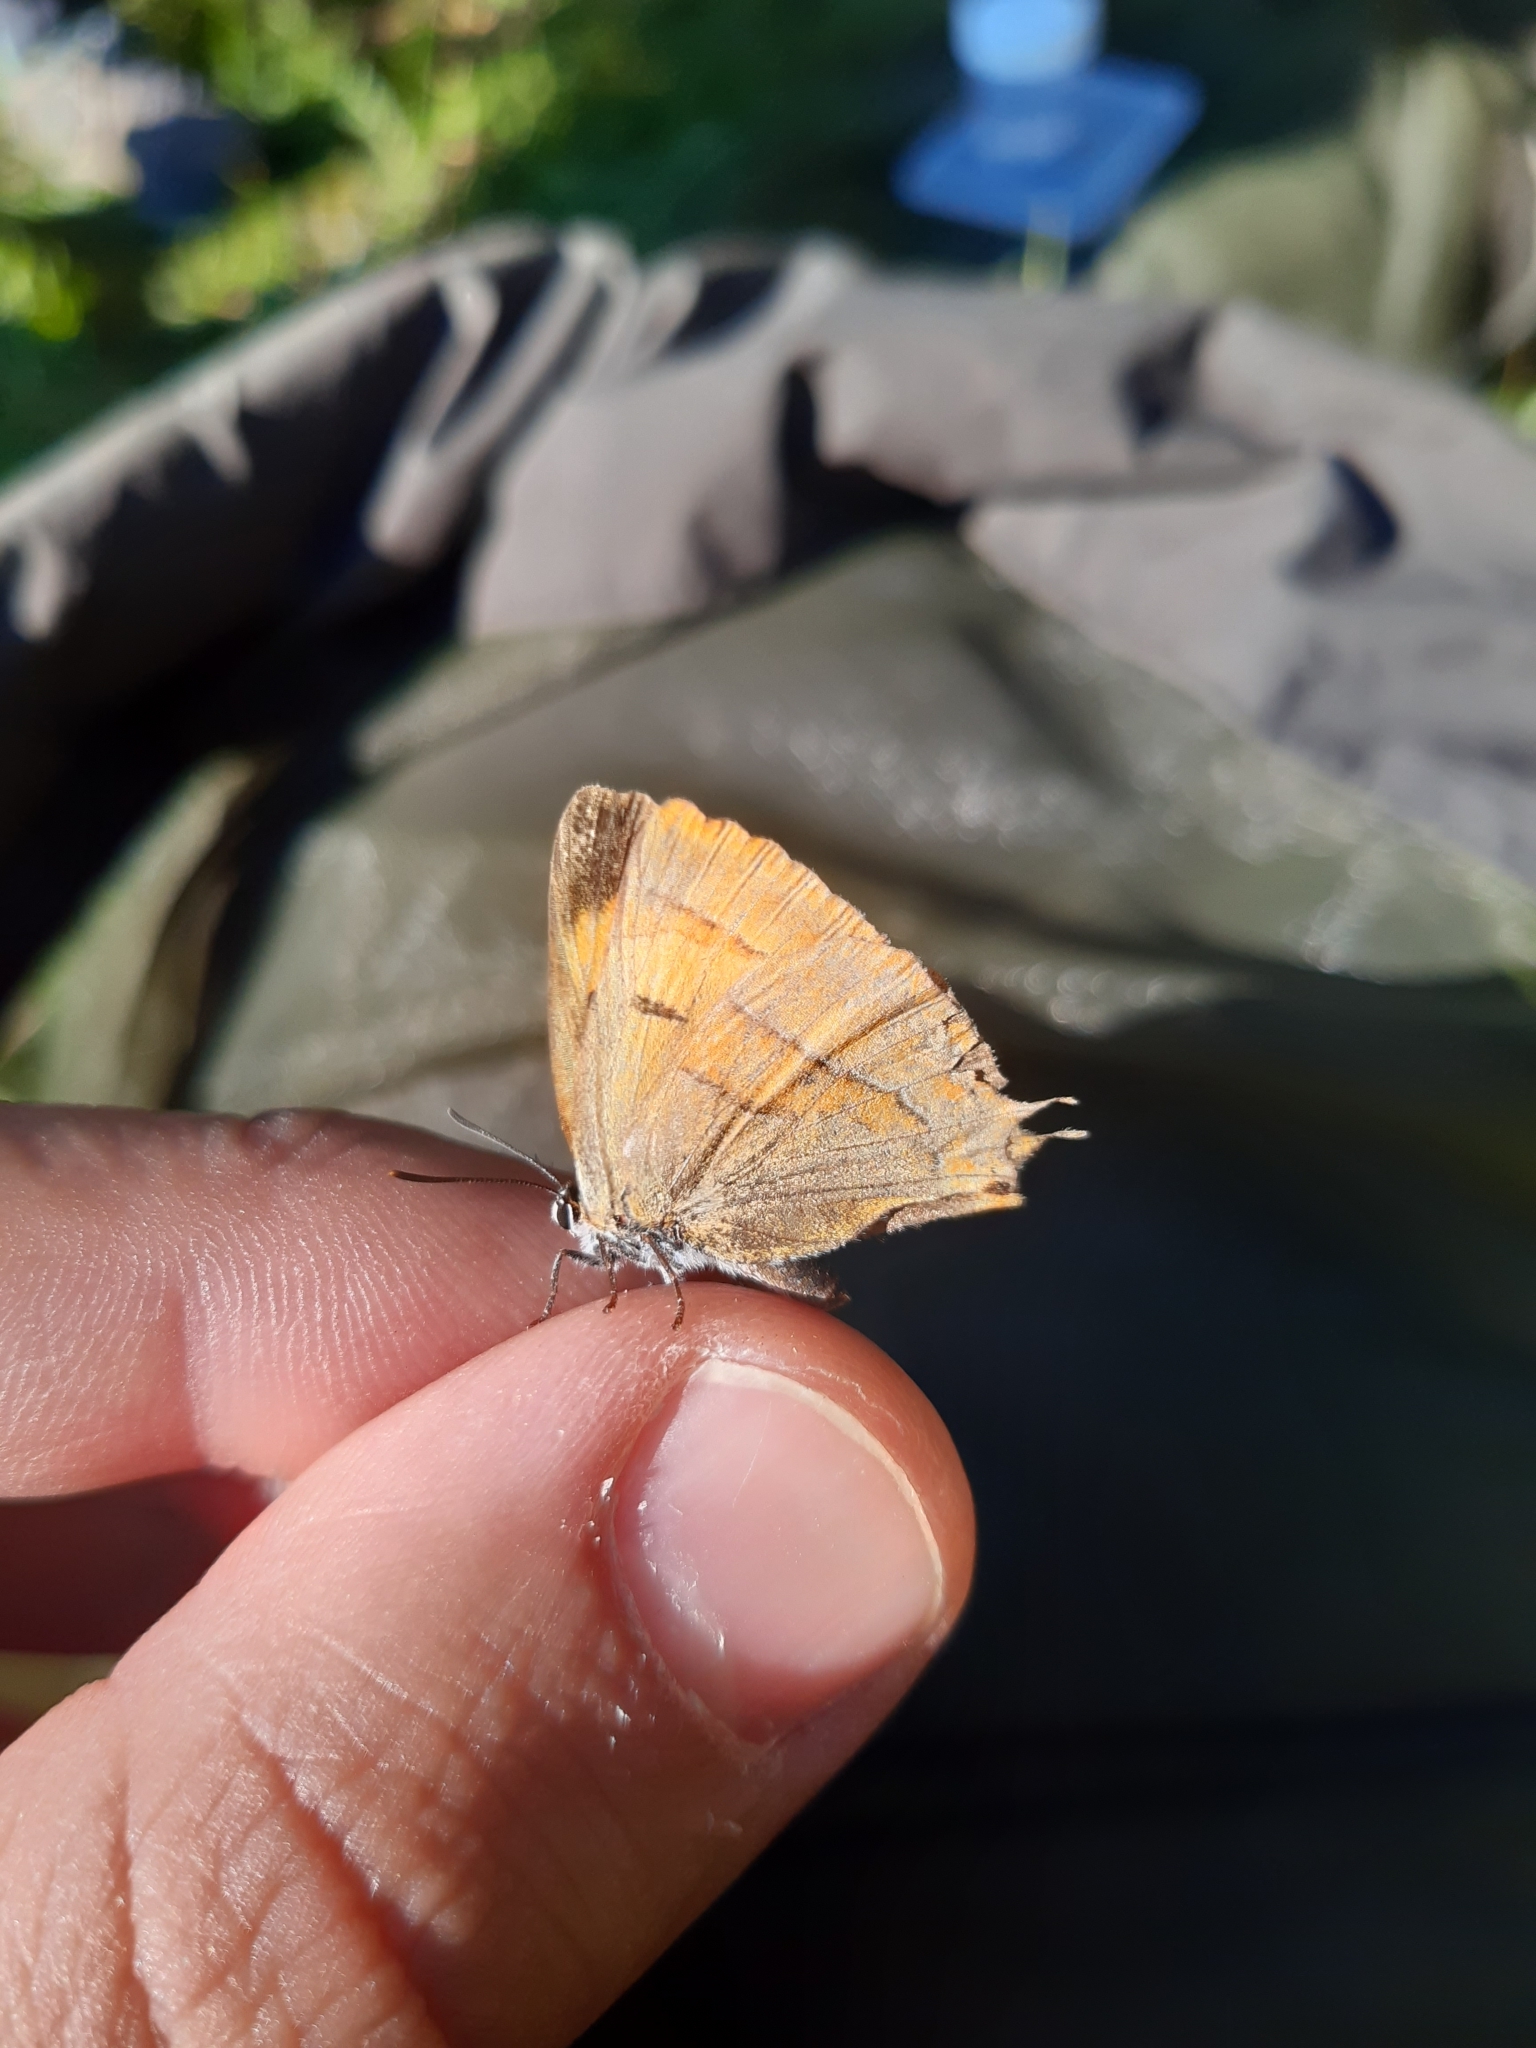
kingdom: Animalia
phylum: Arthropoda
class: Insecta
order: Lepidoptera
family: Lycaenidae
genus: Thecla
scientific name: Thecla betulae
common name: Brown hairstreak
